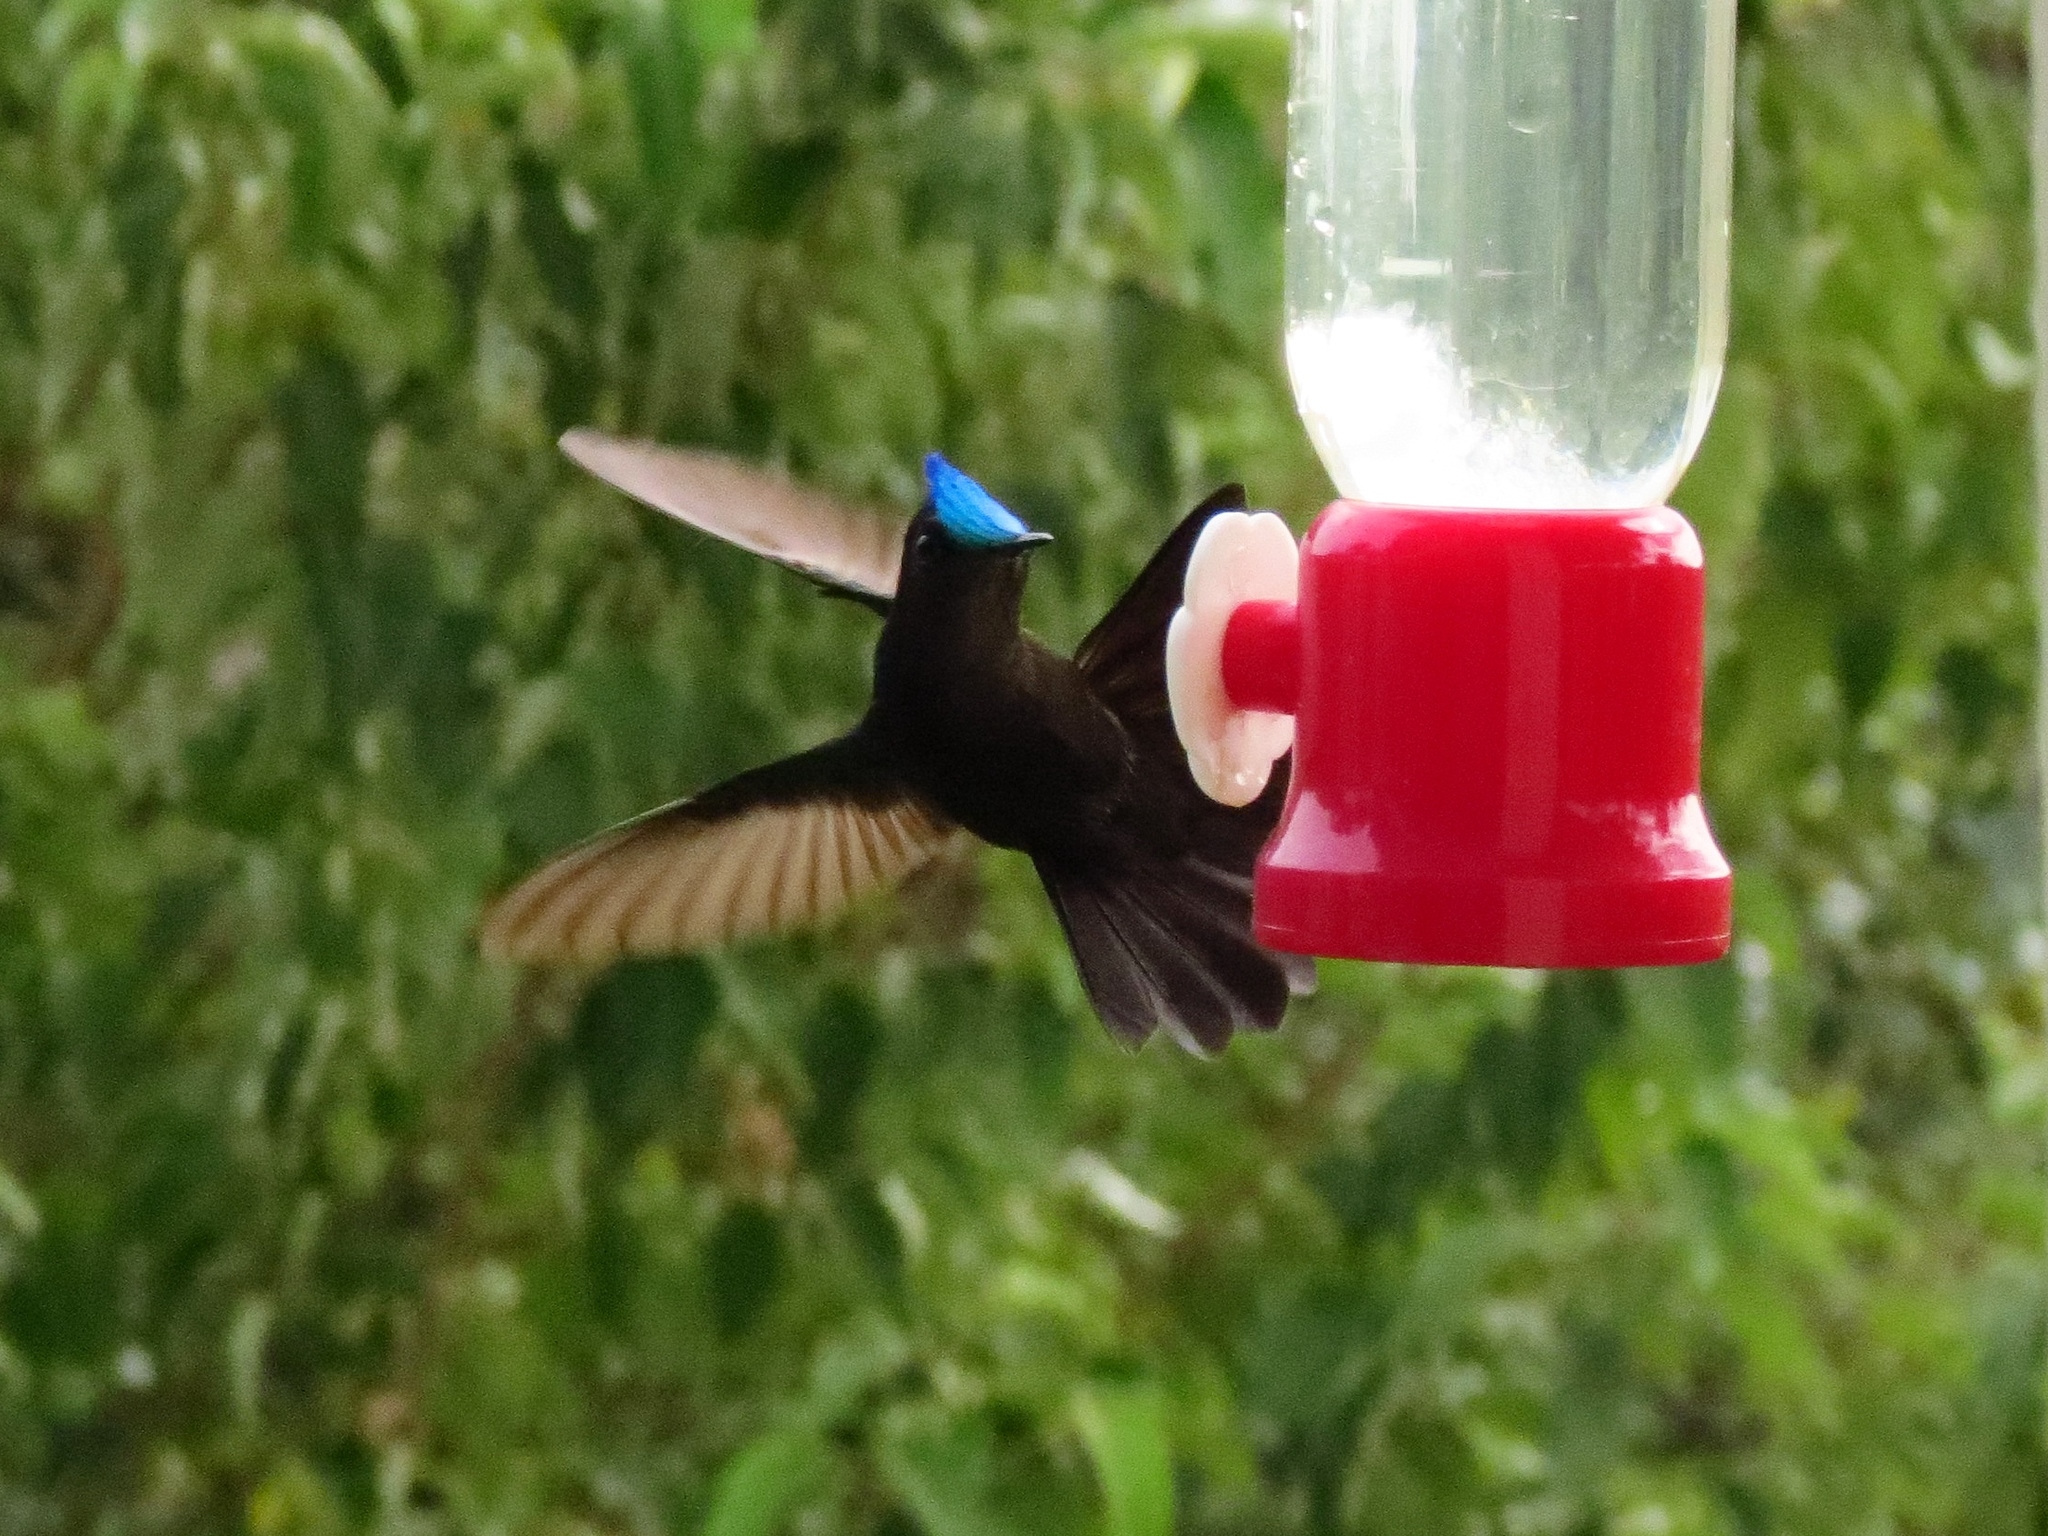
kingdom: Animalia
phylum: Chordata
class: Aves
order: Apodiformes
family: Trochilidae
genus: Orthorhyncus
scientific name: Orthorhyncus cristatus
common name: Antillean crested hummingbird
